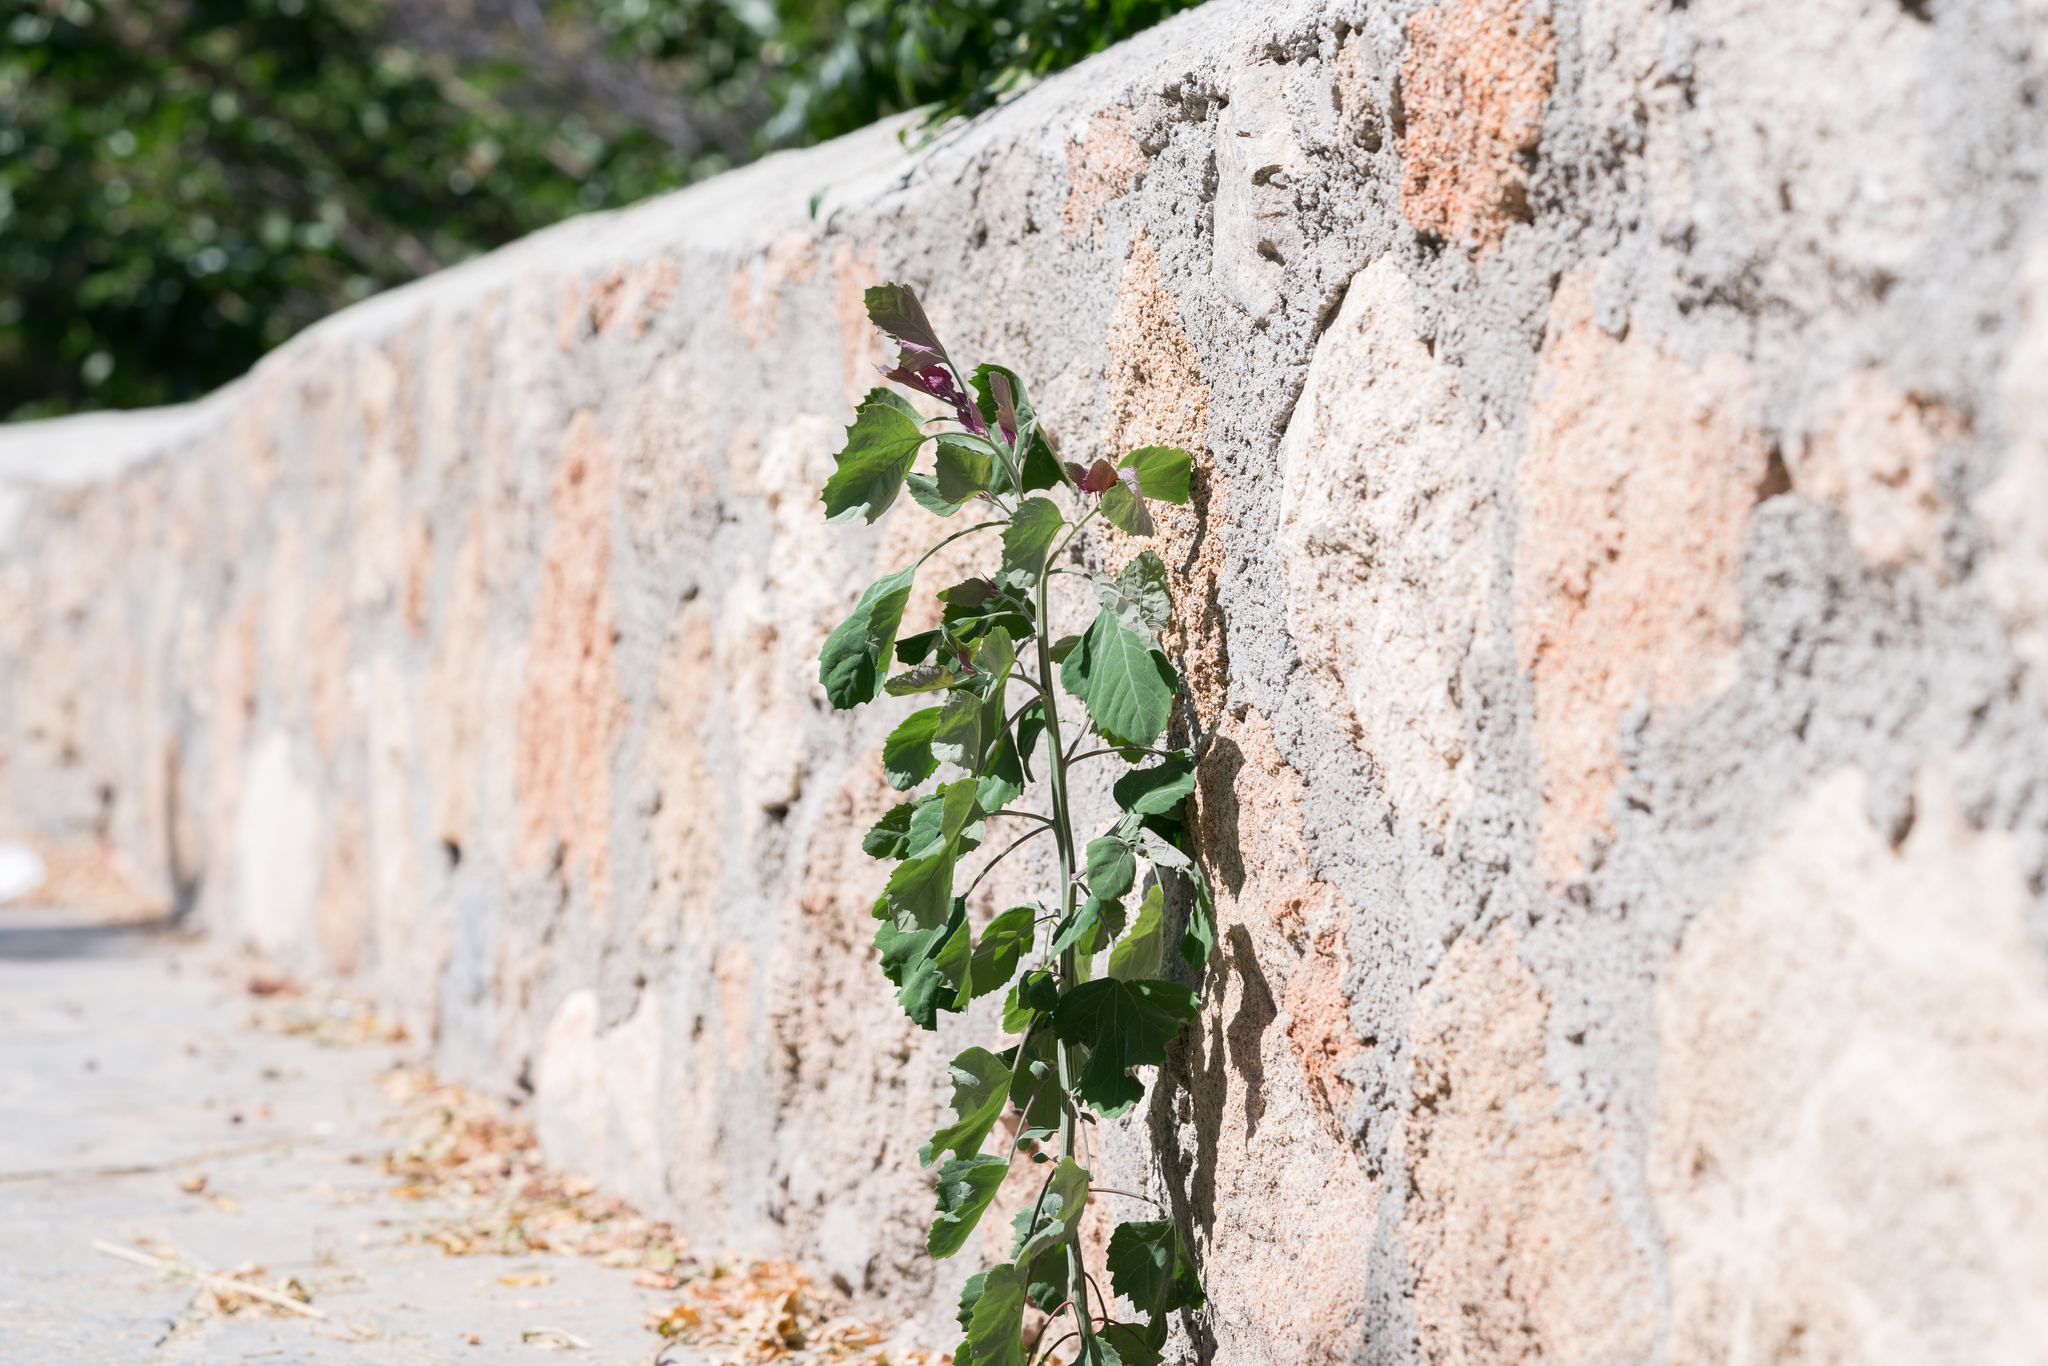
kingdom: Plantae
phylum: Tracheophyta
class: Magnoliopsida
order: Caryophyllales
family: Amaranthaceae
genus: Chenopodium
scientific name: Chenopodium giganteum
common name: Magentaspreen
